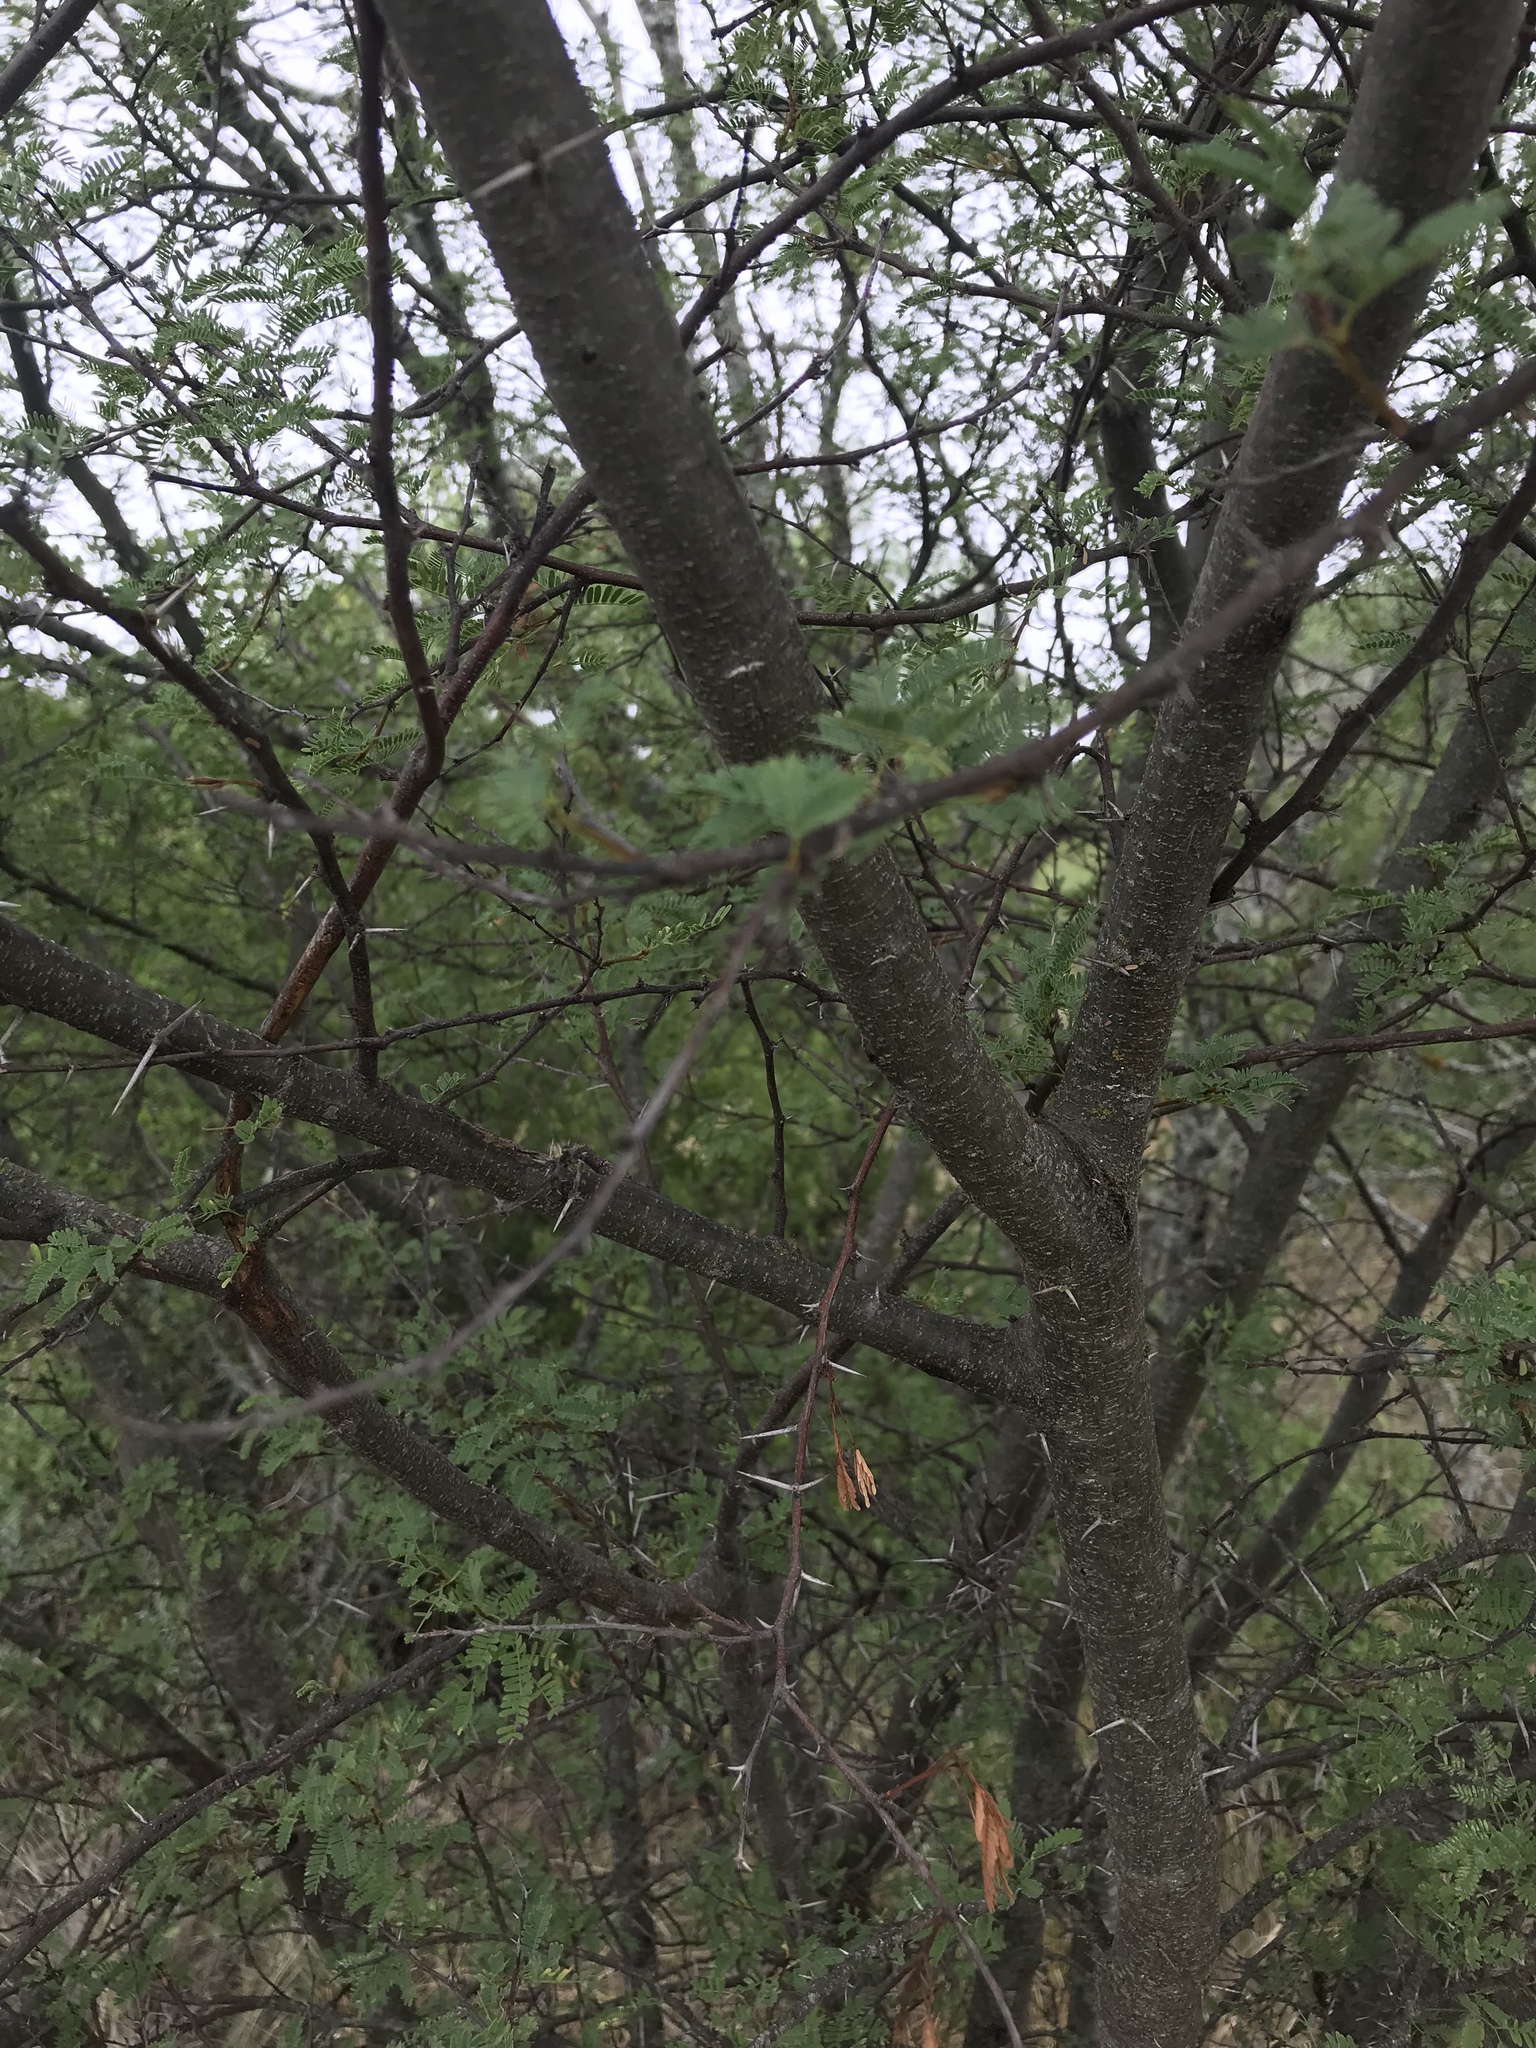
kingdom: Plantae
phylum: Tracheophyta
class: Magnoliopsida
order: Fabales
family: Fabaceae
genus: Vachellia
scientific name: Vachellia farnesiana
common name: Sweet acacia
